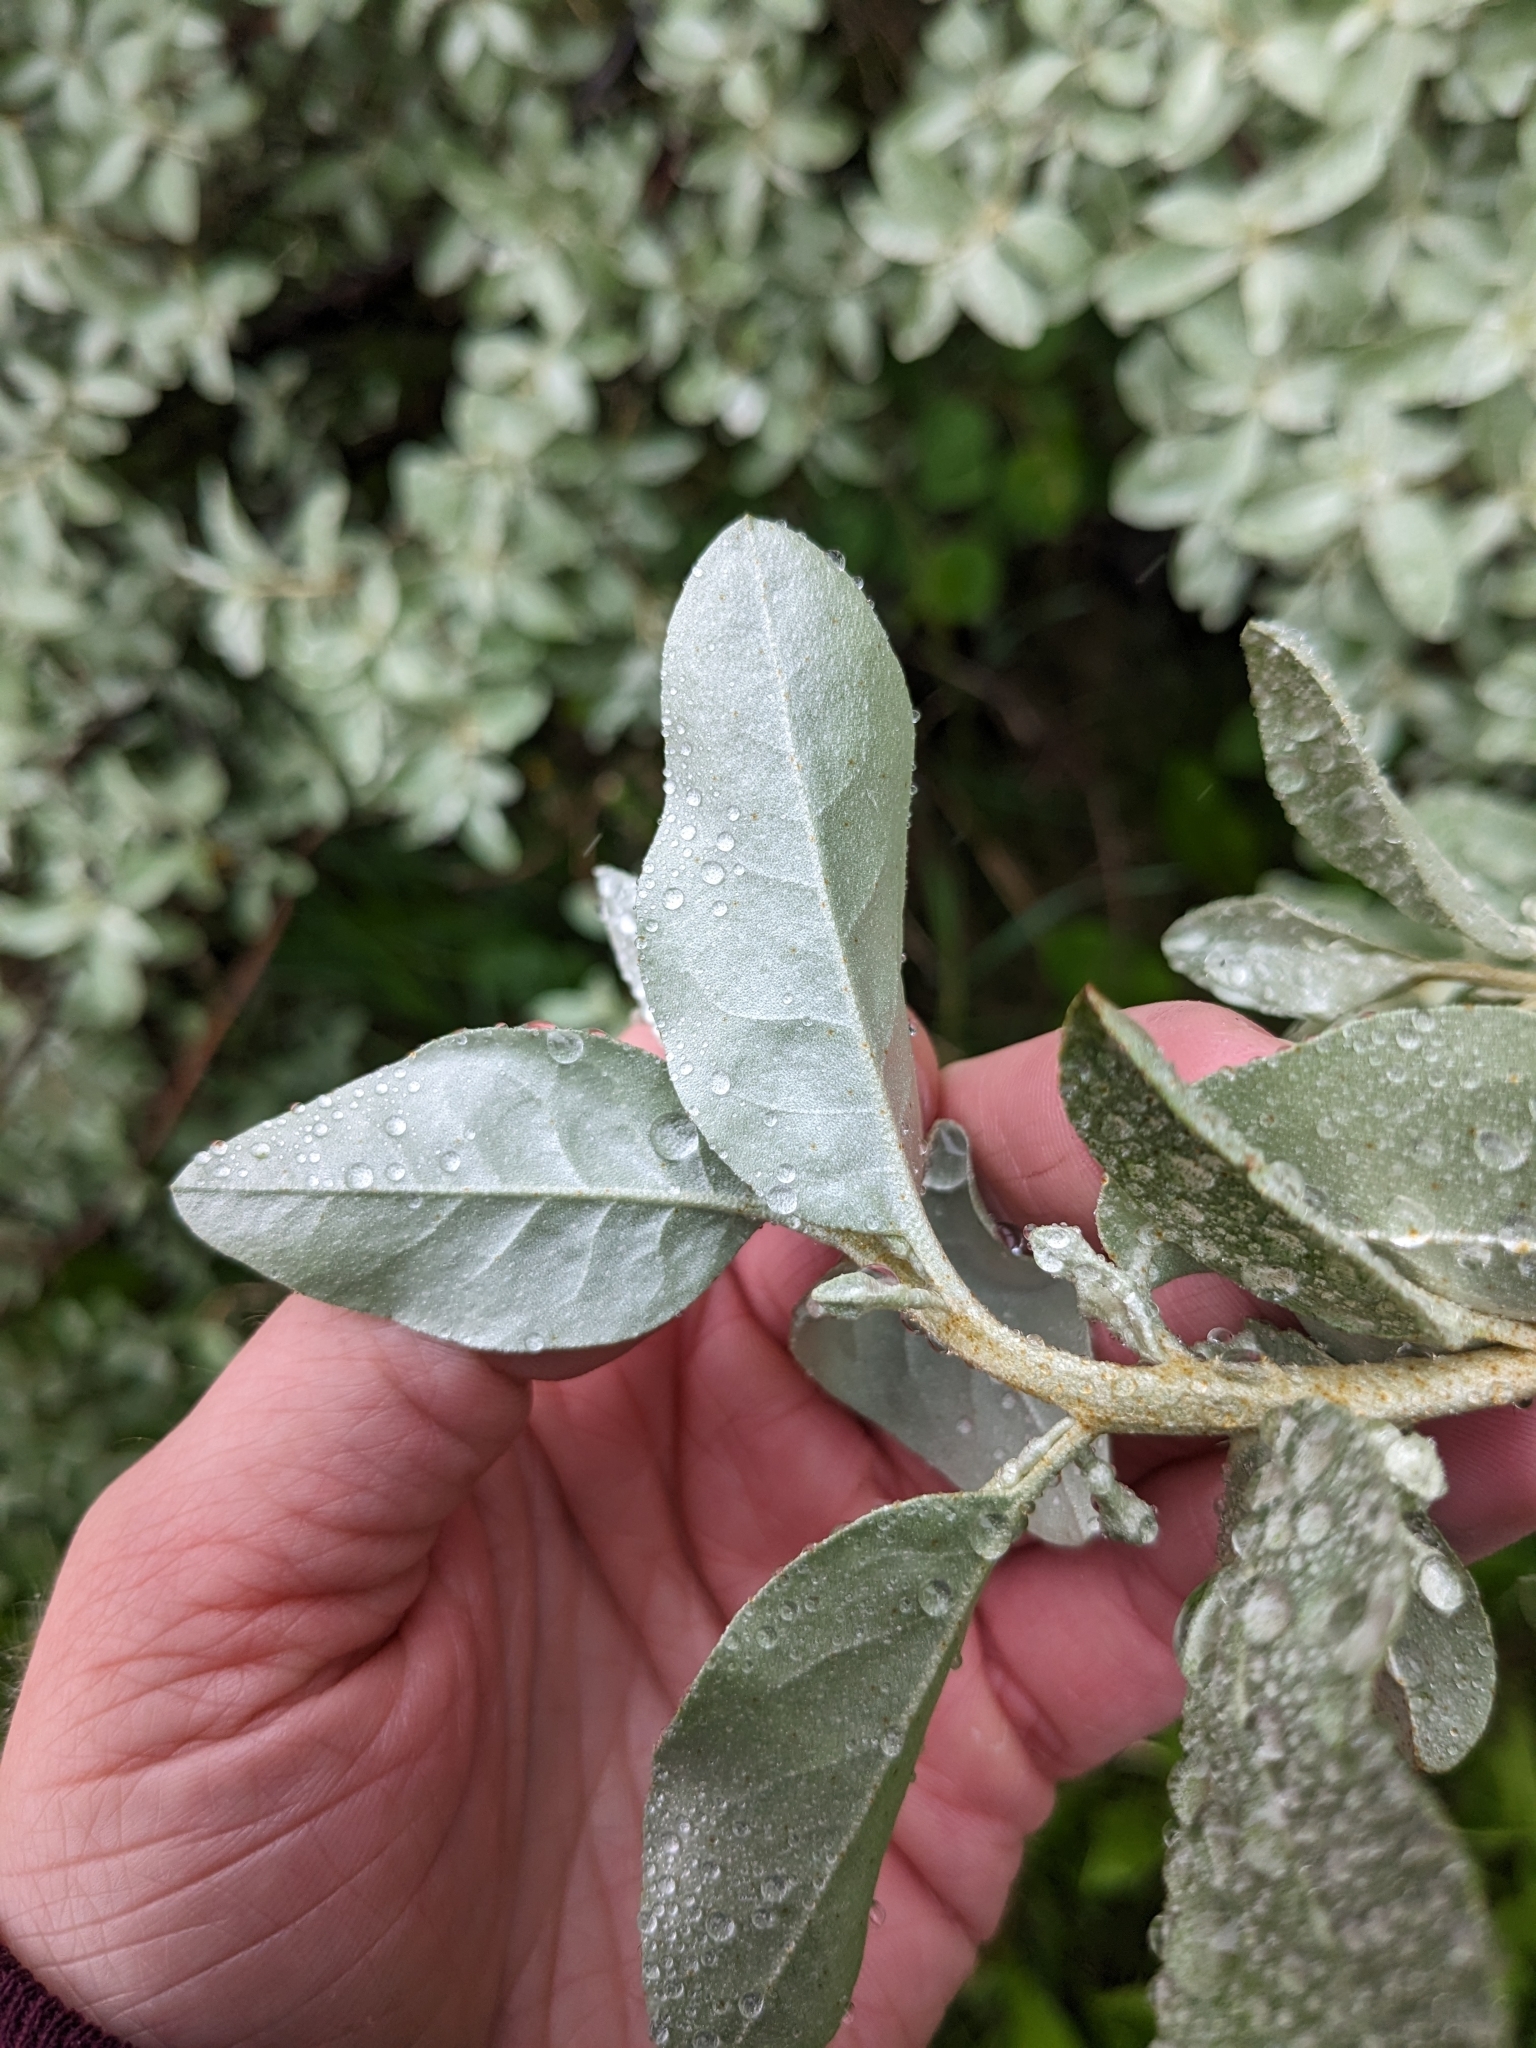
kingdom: Plantae
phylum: Tracheophyta
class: Magnoliopsida
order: Rosales
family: Elaeagnaceae
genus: Elaeagnus
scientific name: Elaeagnus commutata
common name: Silverberry
